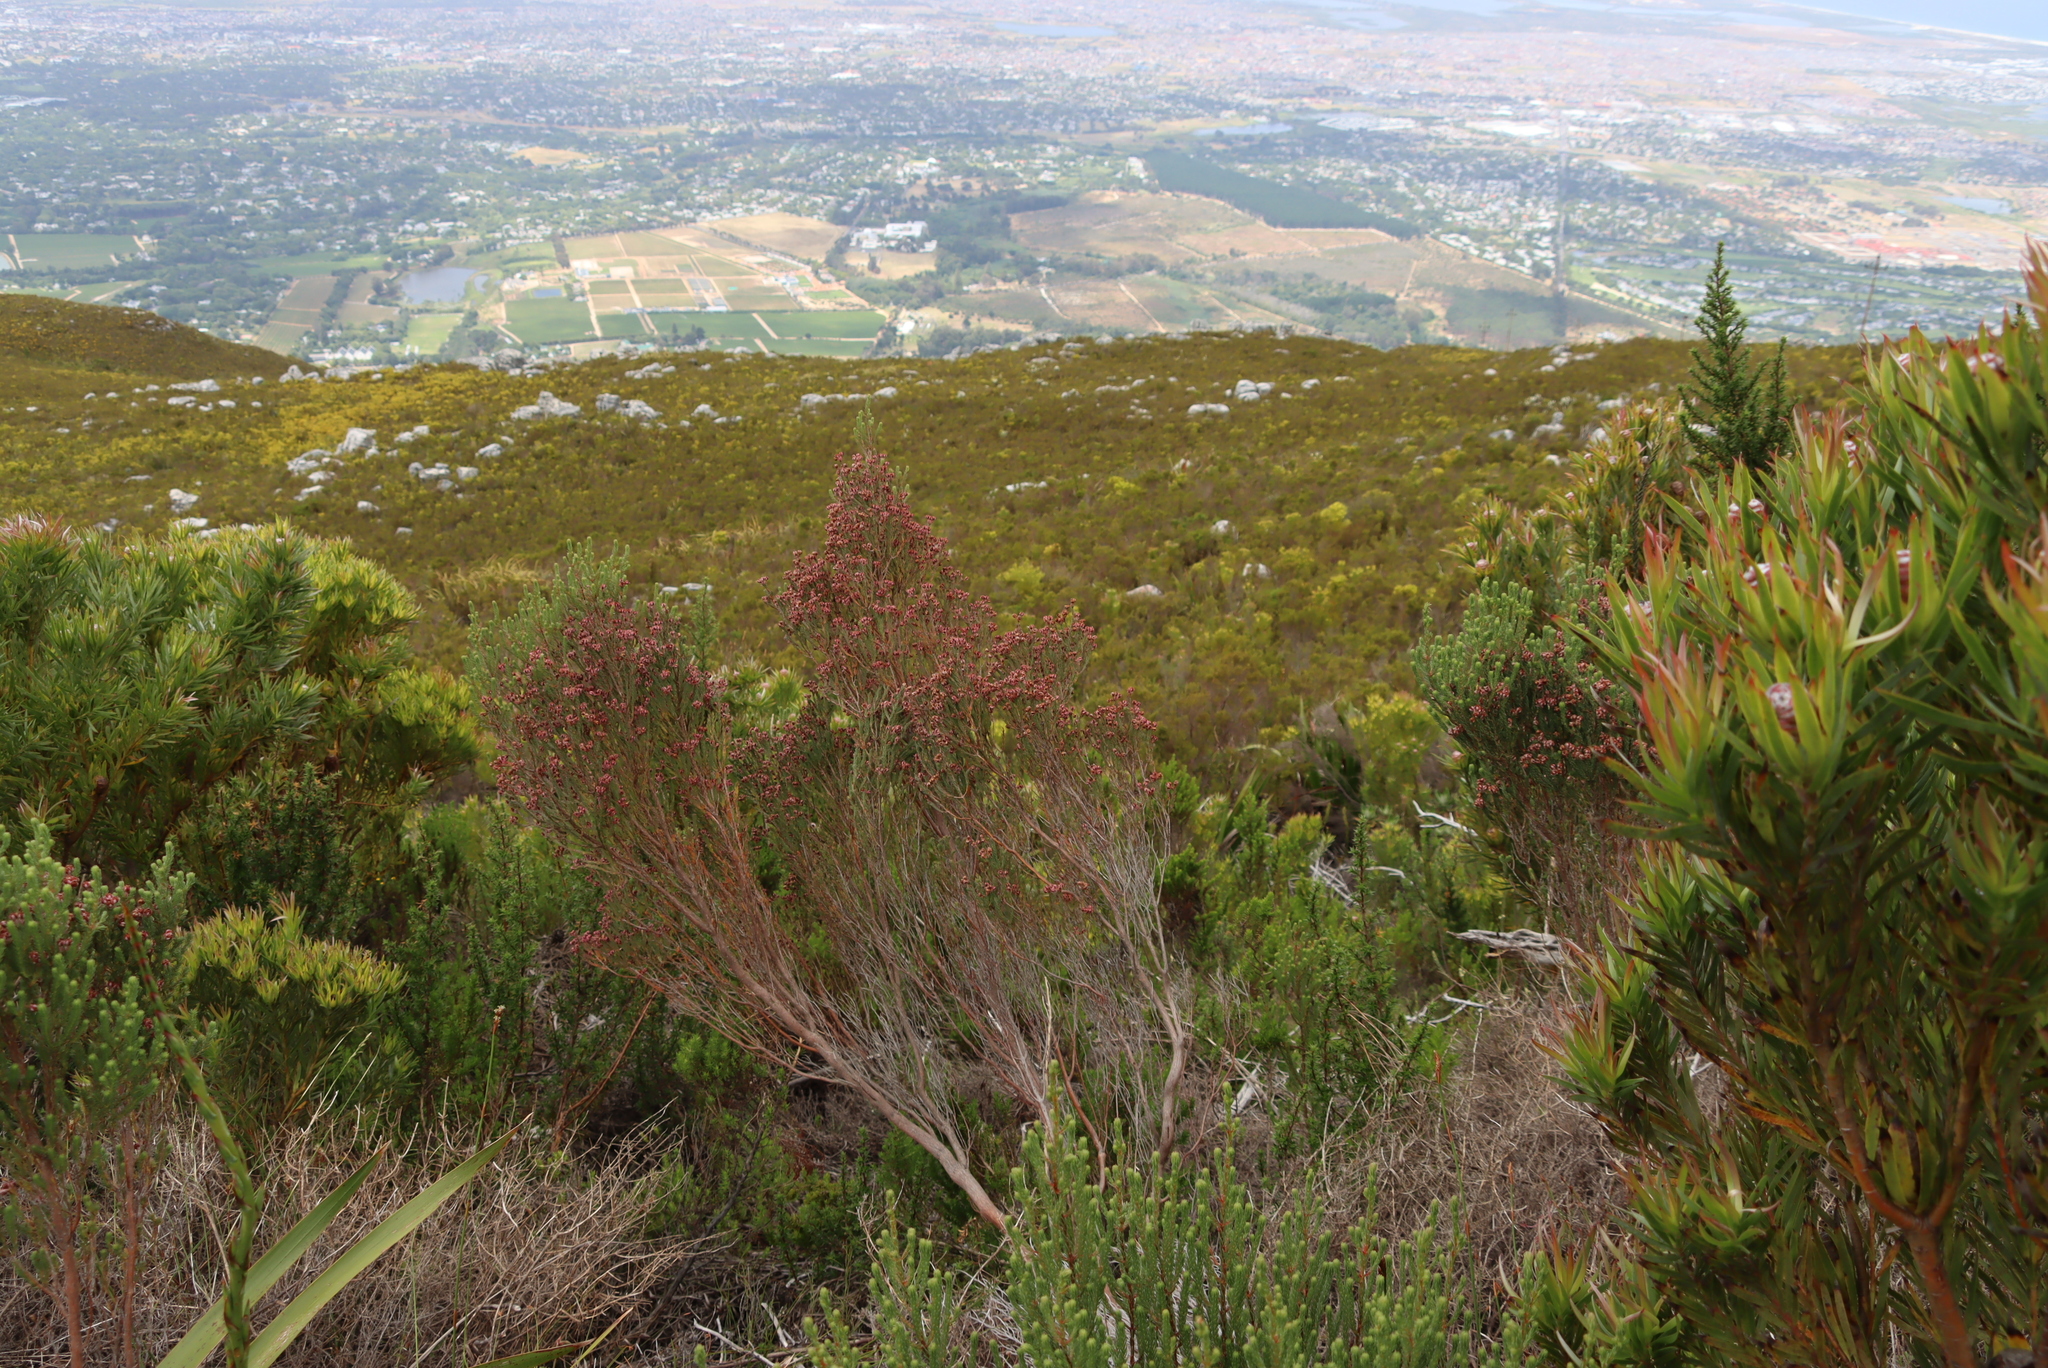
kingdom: Plantae
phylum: Tracheophyta
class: Magnoliopsida
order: Ericales
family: Ericaceae
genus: Erica
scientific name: Erica baccans
